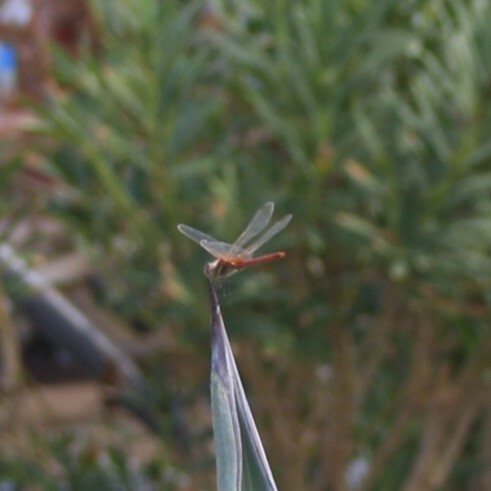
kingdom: Animalia
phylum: Arthropoda
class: Insecta
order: Odonata
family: Libellulidae
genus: Sympetrum
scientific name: Sympetrum fonscolombii
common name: Red-veined darter
